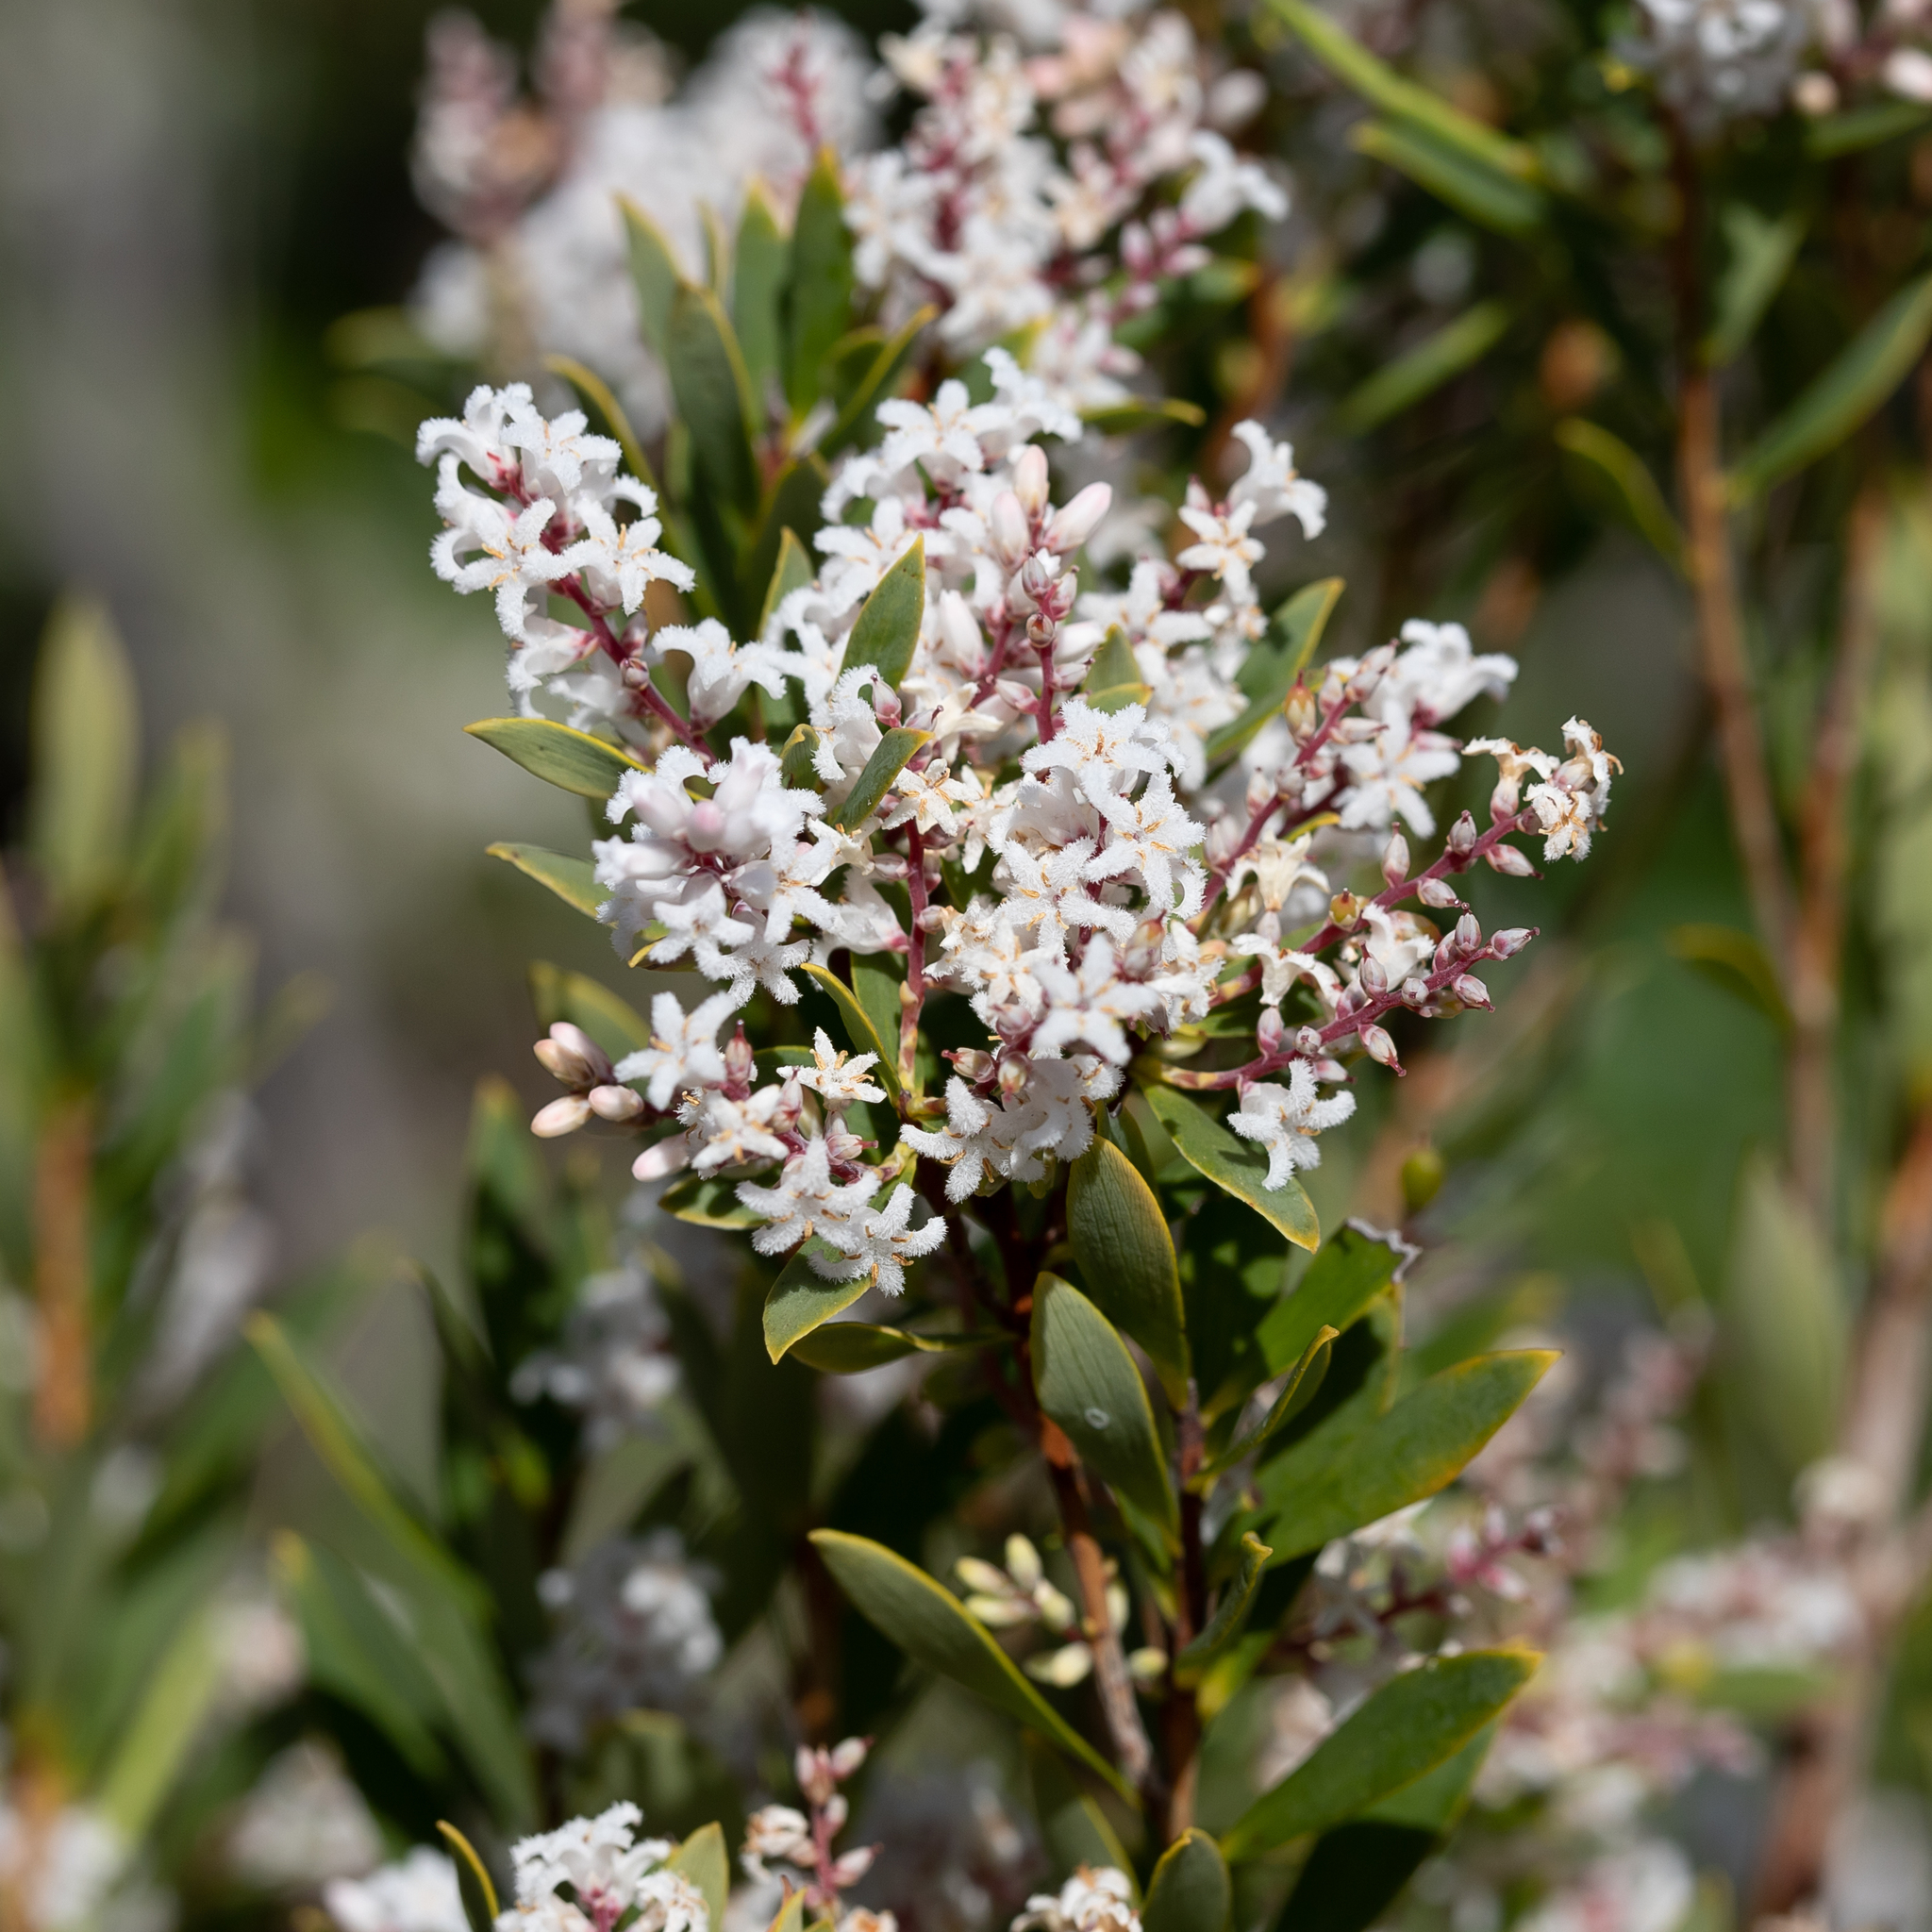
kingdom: Plantae
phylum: Tracheophyta
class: Magnoliopsida
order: Ericales
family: Ericaceae
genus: Leptecophylla
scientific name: Leptecophylla parvifolia
